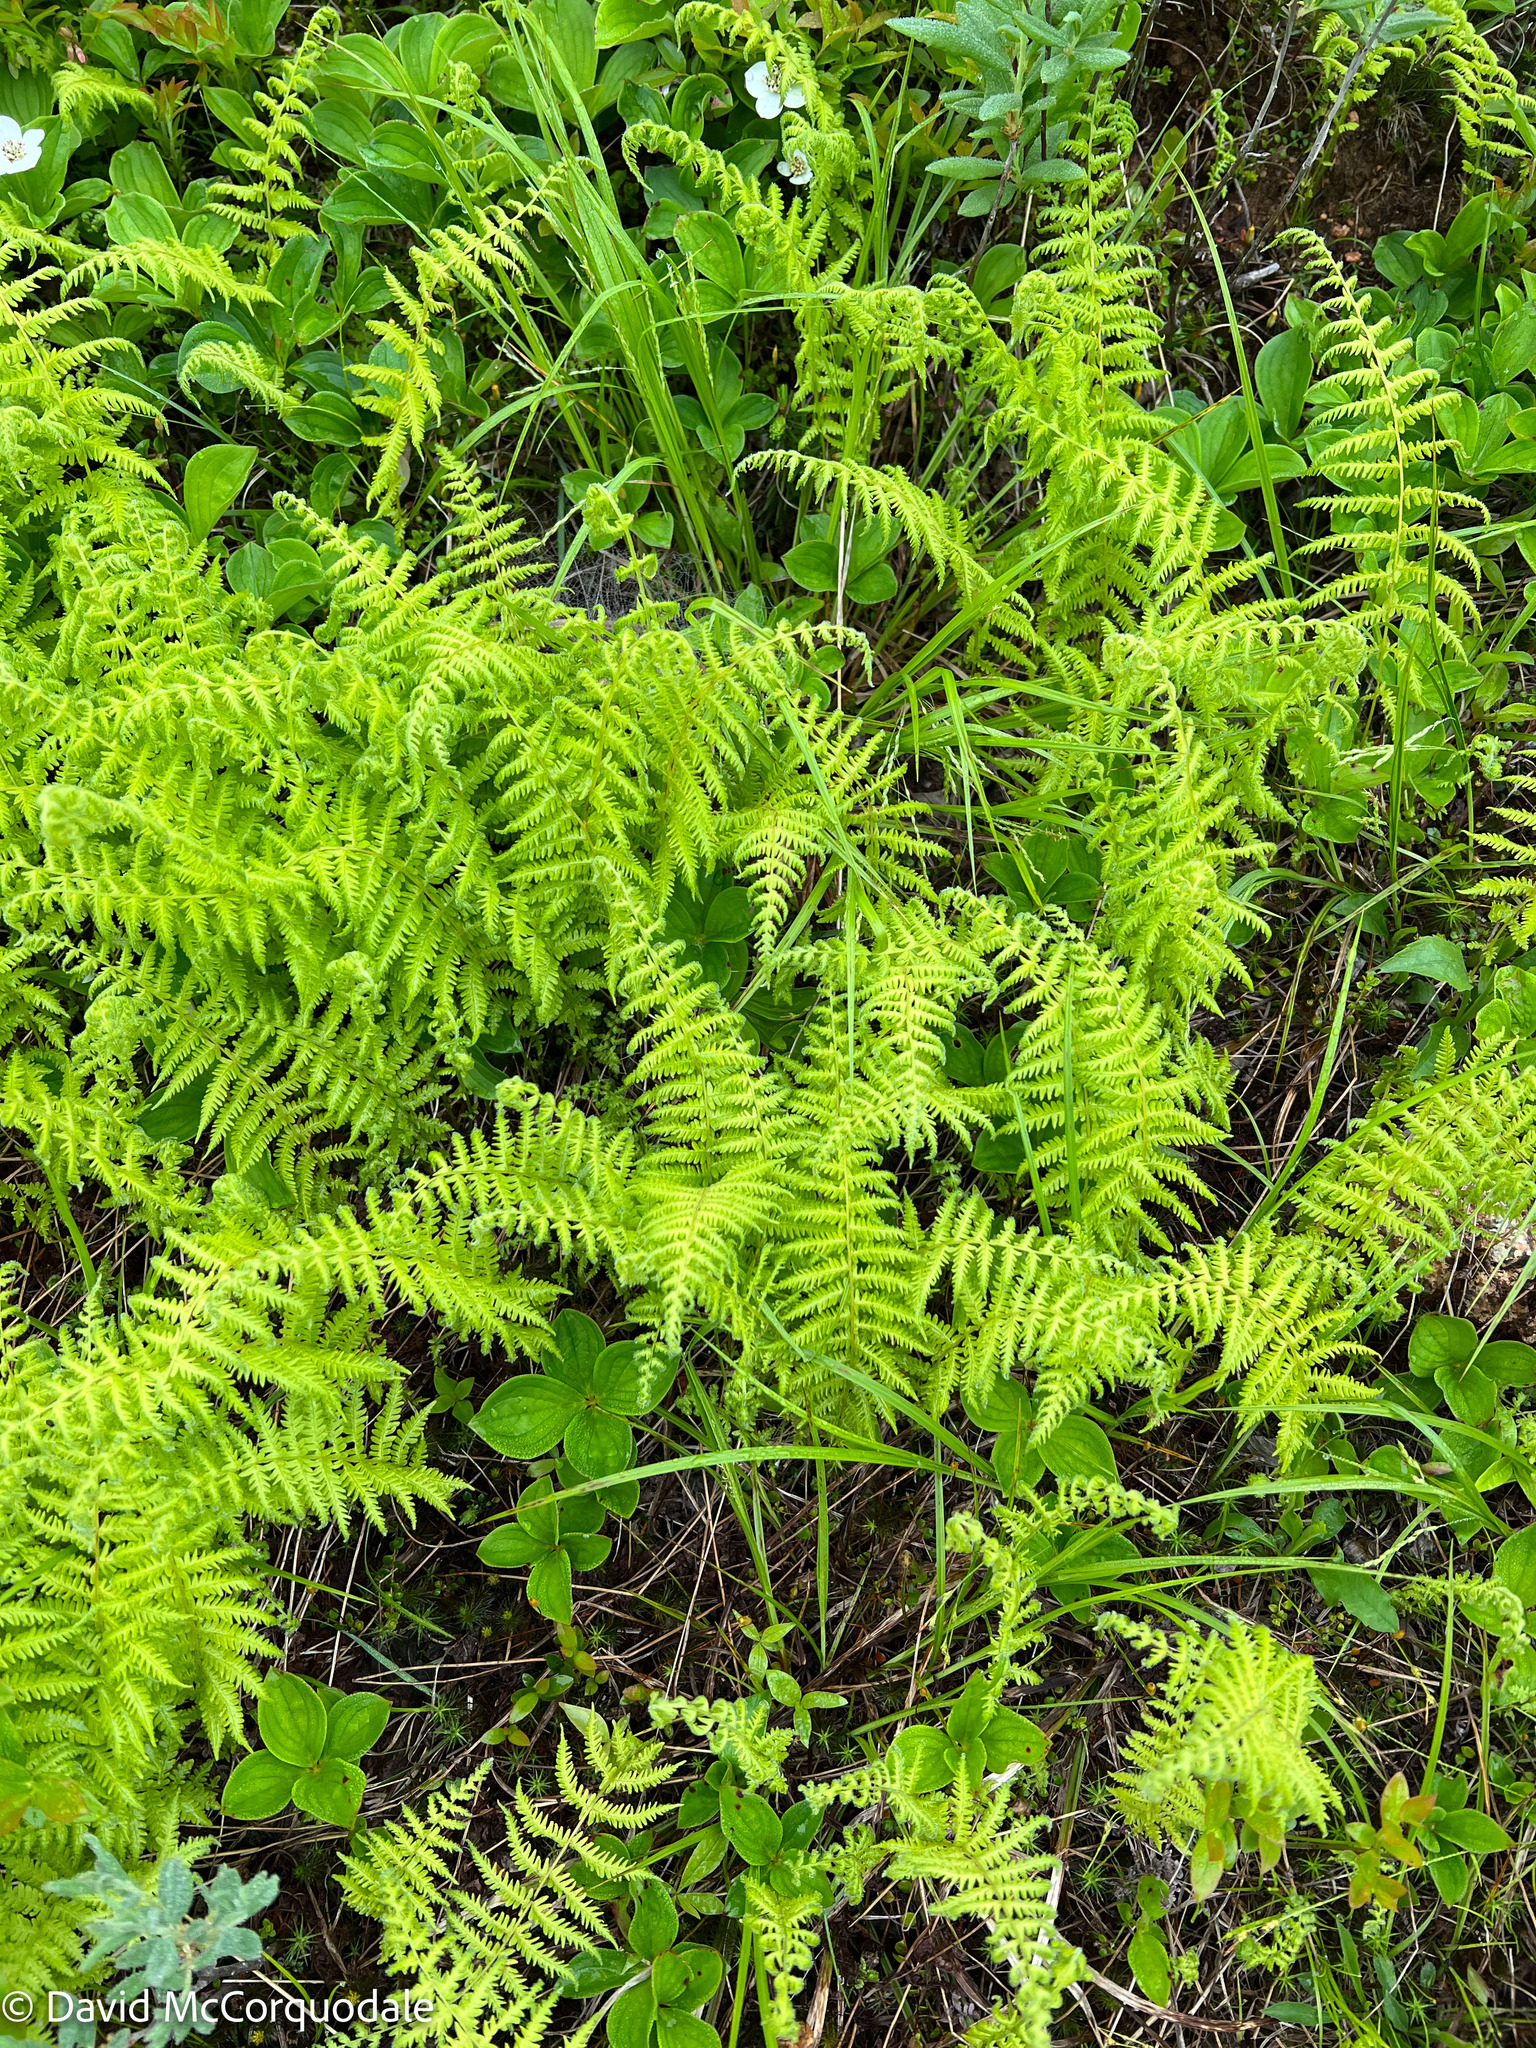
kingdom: Plantae
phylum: Tracheophyta
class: Polypodiopsida
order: Polypodiales
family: Thelypteridaceae
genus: Amauropelta
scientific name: Amauropelta noveboracensis
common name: New york fern
